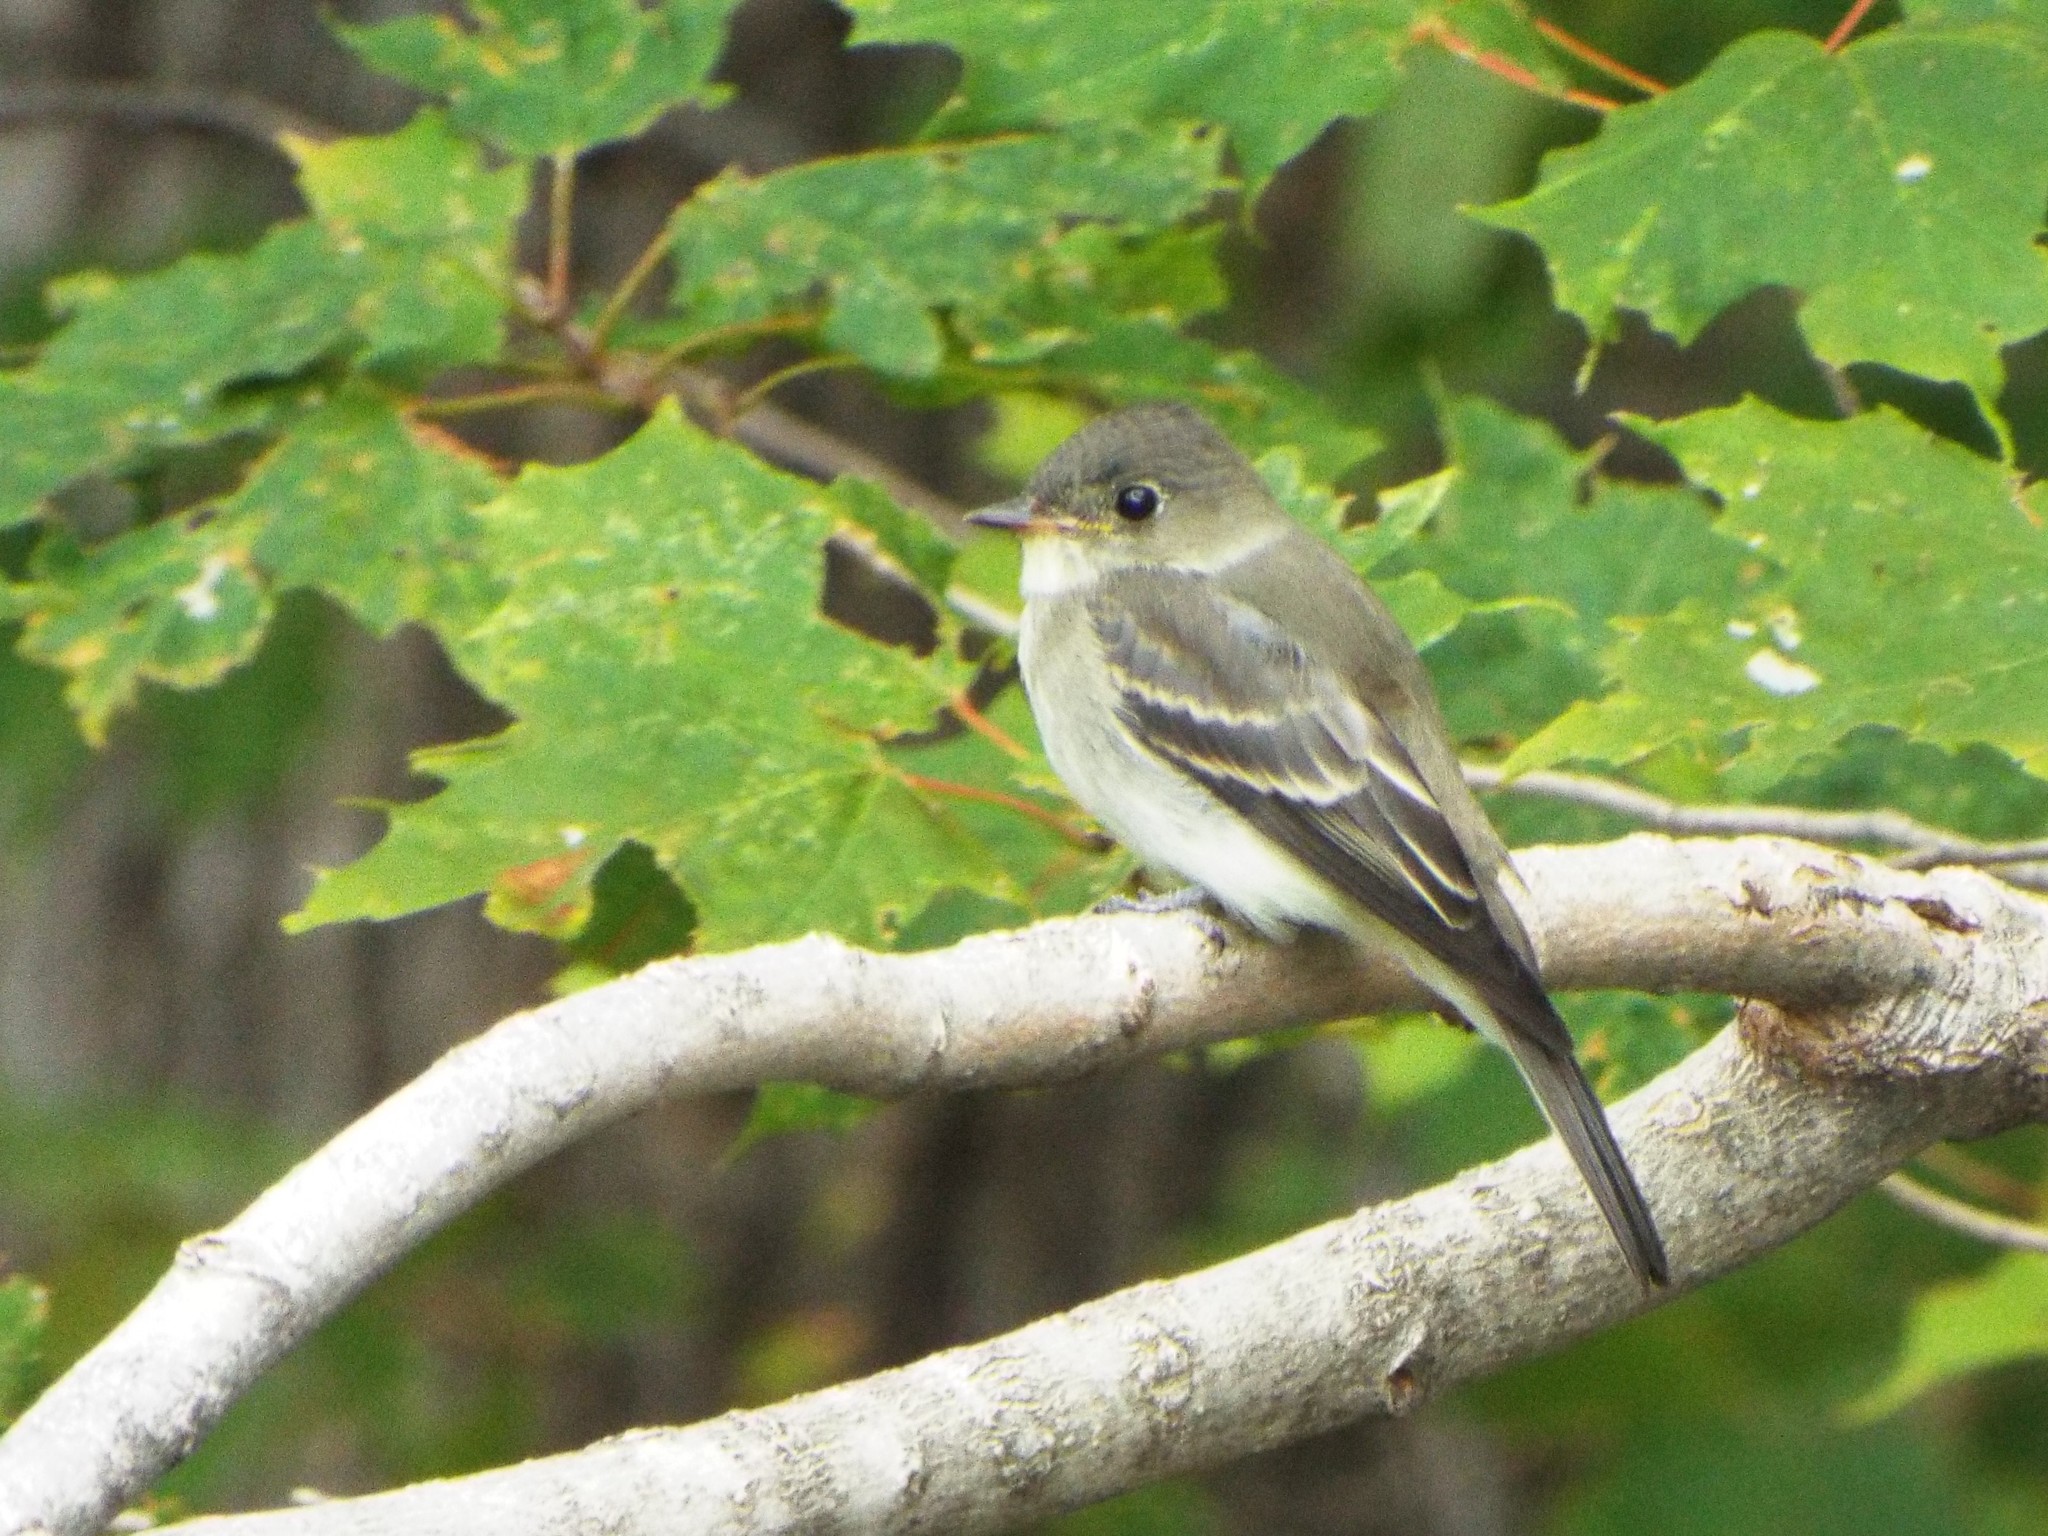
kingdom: Animalia
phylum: Chordata
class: Aves
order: Passeriformes
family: Tyrannidae
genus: Contopus
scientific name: Contopus virens
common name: Eastern wood-pewee
